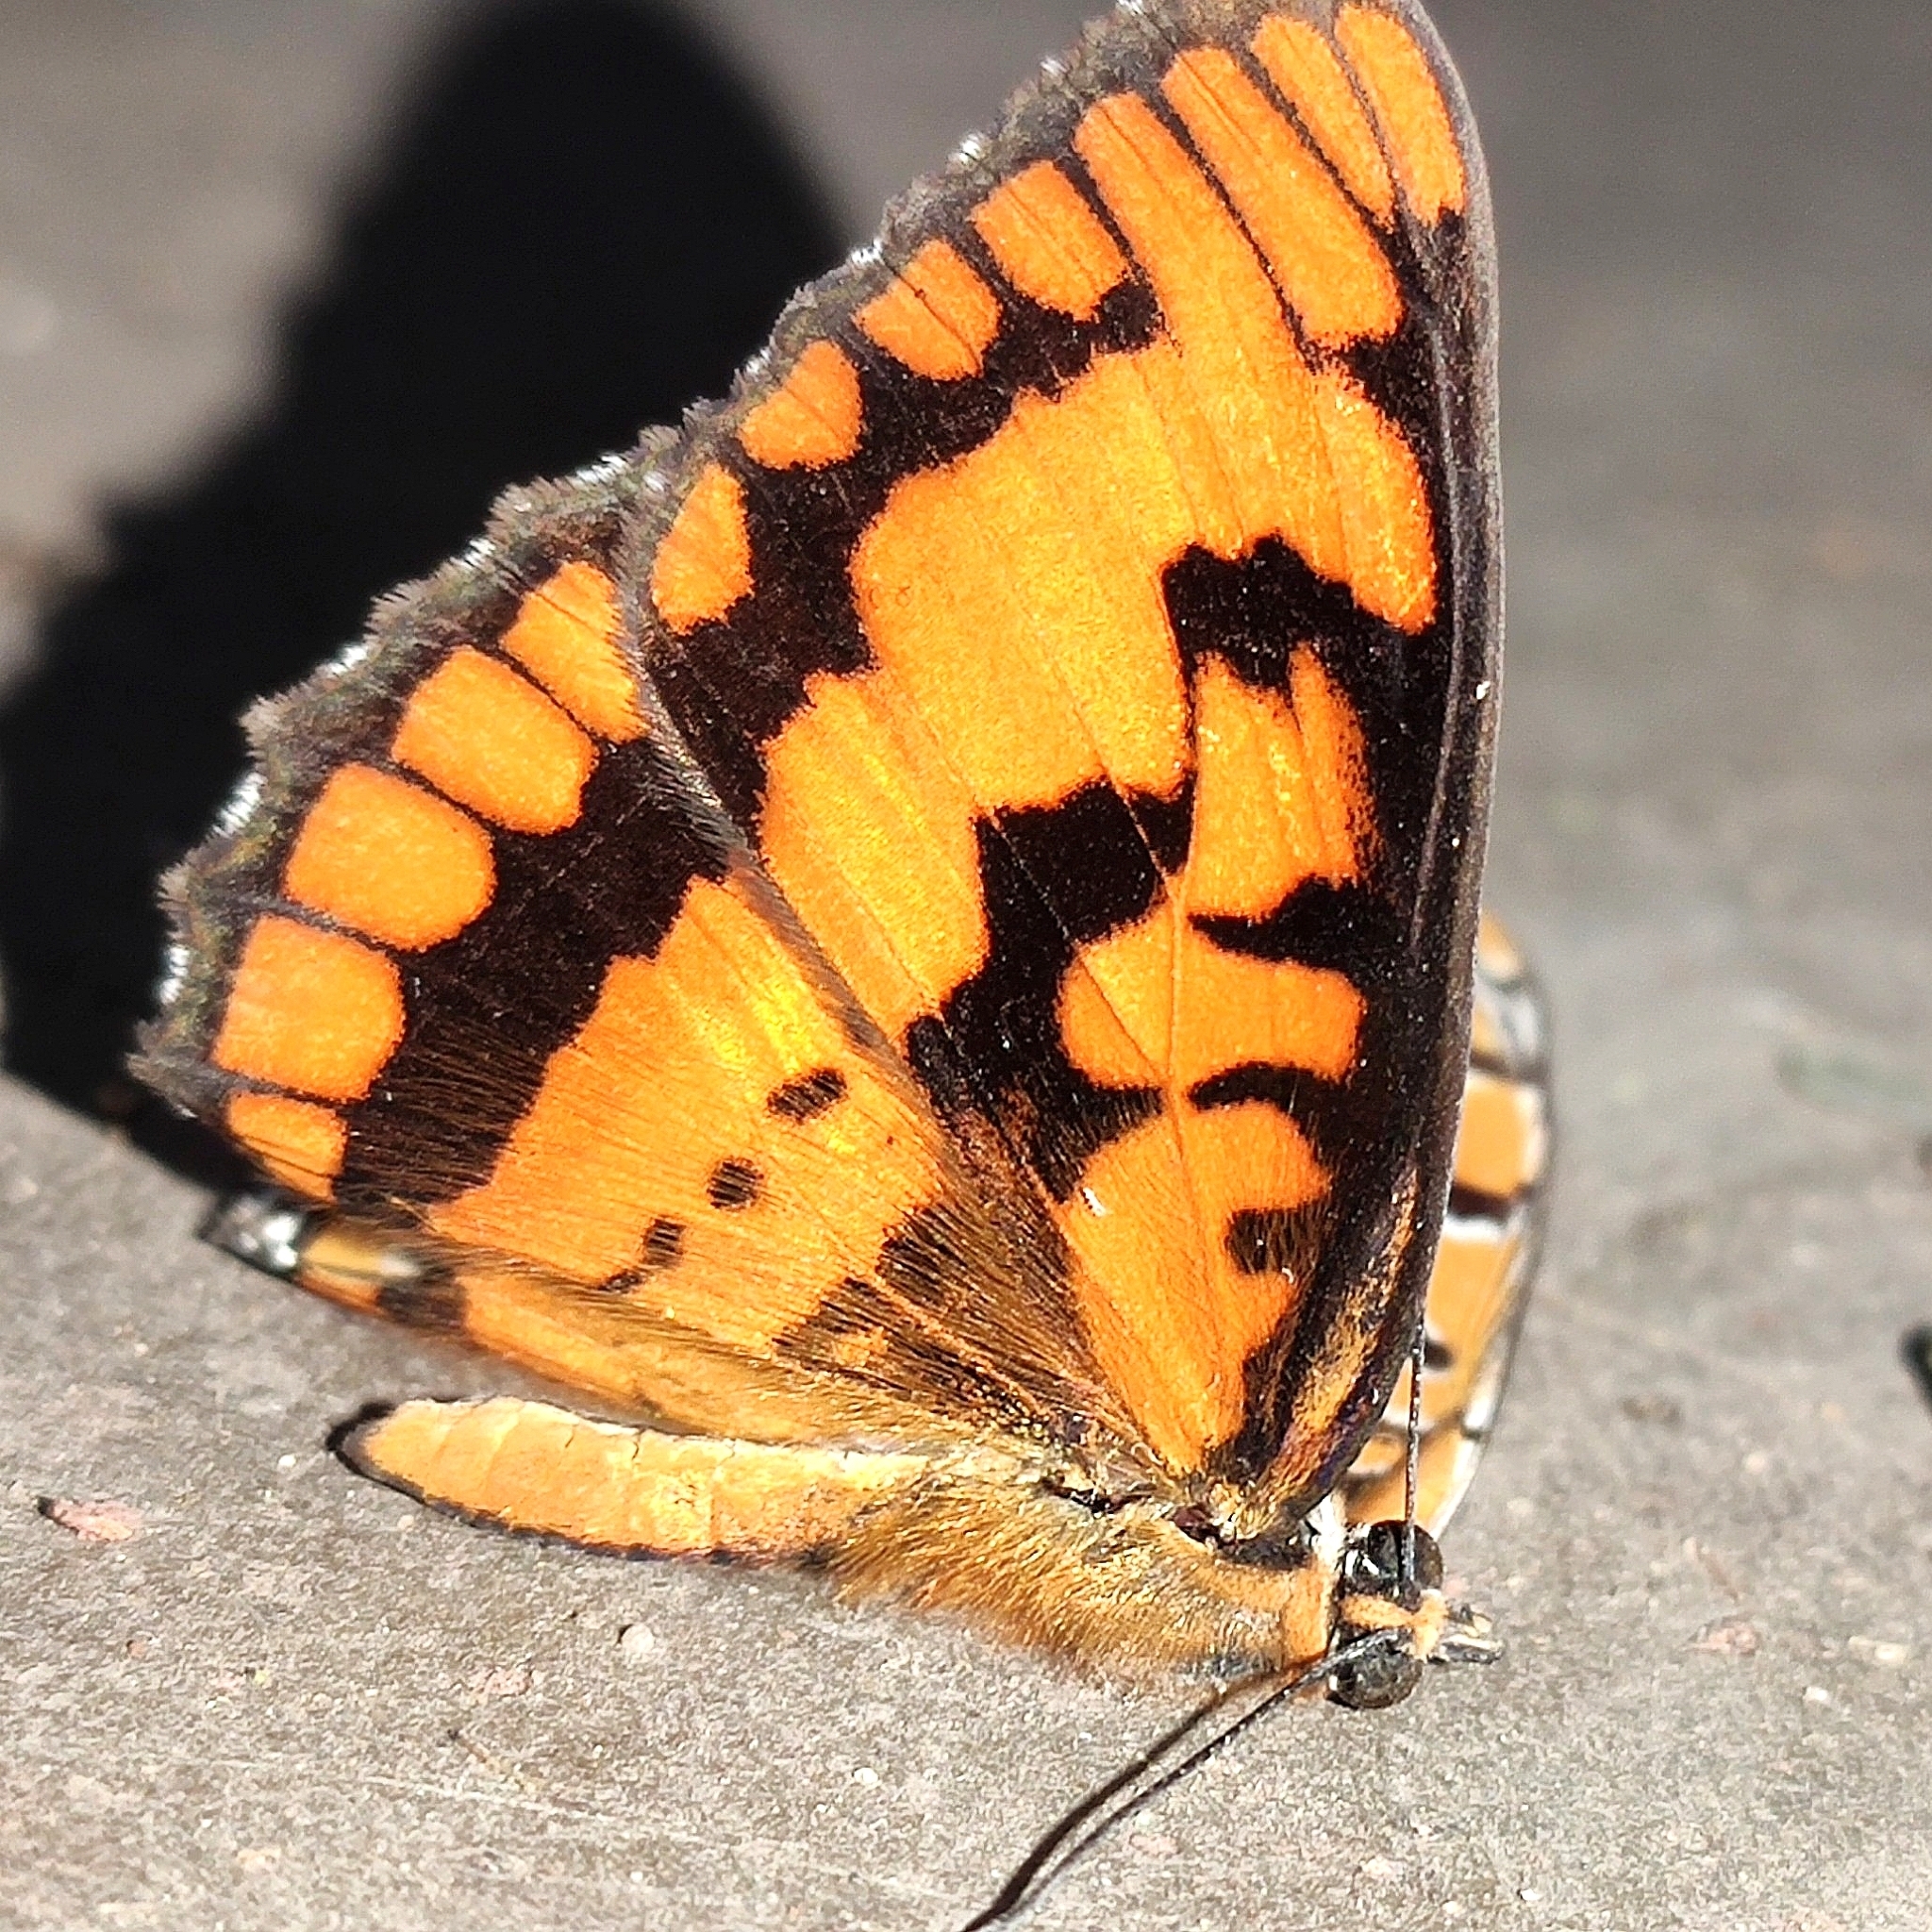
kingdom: Animalia
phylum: Arthropoda
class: Insecta
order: Lepidoptera
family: Nymphalidae
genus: Byblia
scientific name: Byblia ilithyia
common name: Spotted joker
